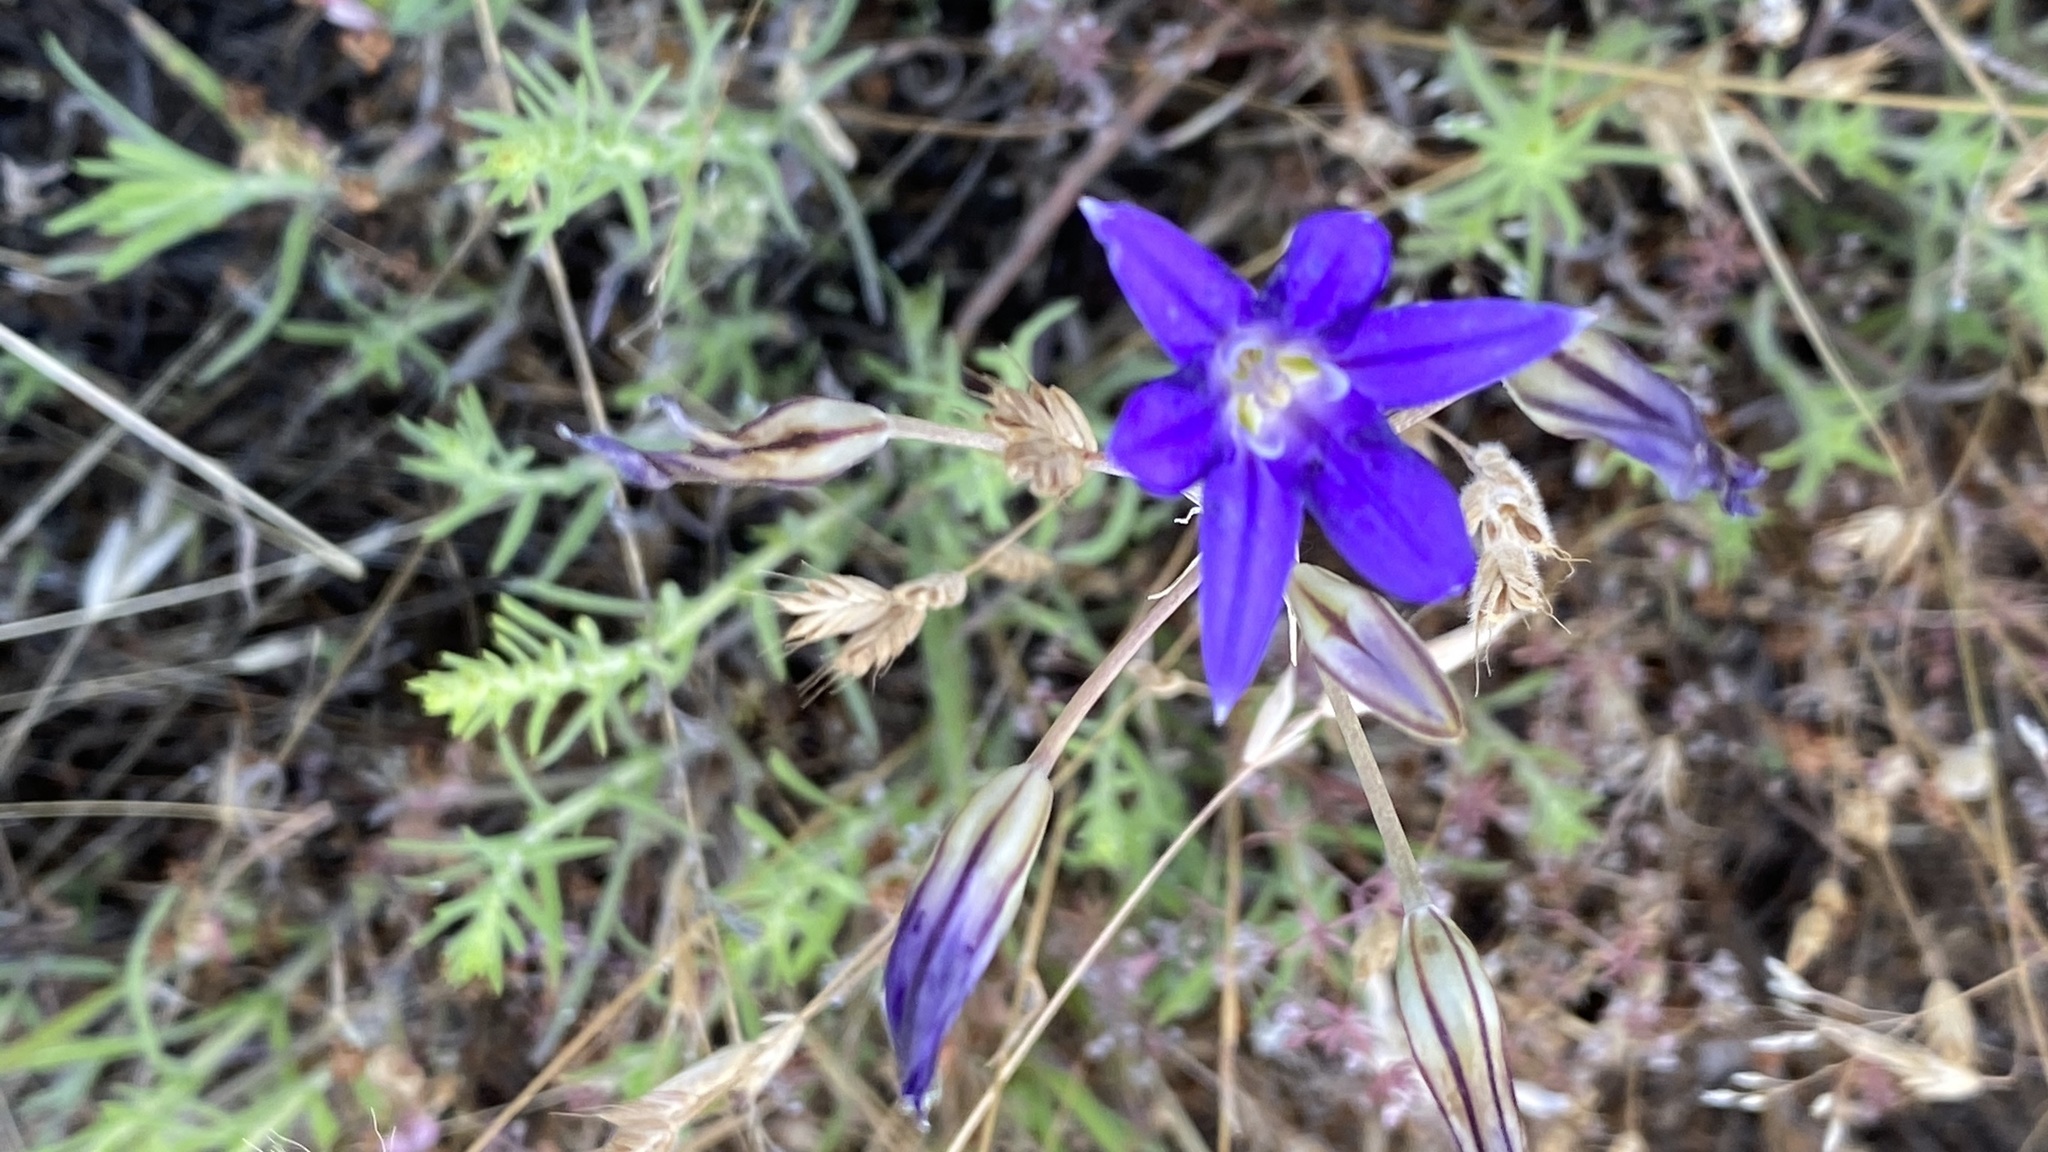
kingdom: Plantae
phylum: Tracheophyta
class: Liliopsida
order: Asparagales
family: Asparagaceae
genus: Brodiaea
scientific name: Brodiaea elegans
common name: Elegant cluster-lily
